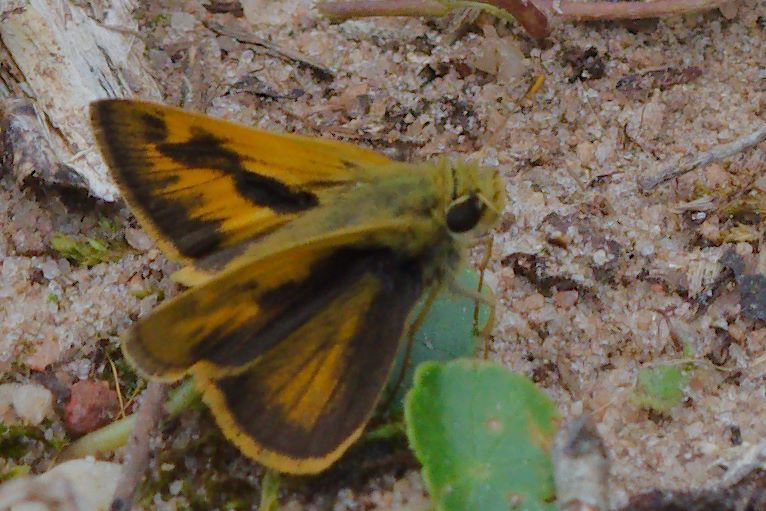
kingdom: Animalia
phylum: Arthropoda
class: Insecta
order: Lepidoptera
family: Hesperiidae
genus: Polites
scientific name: Polites vibex
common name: Whirlabout
